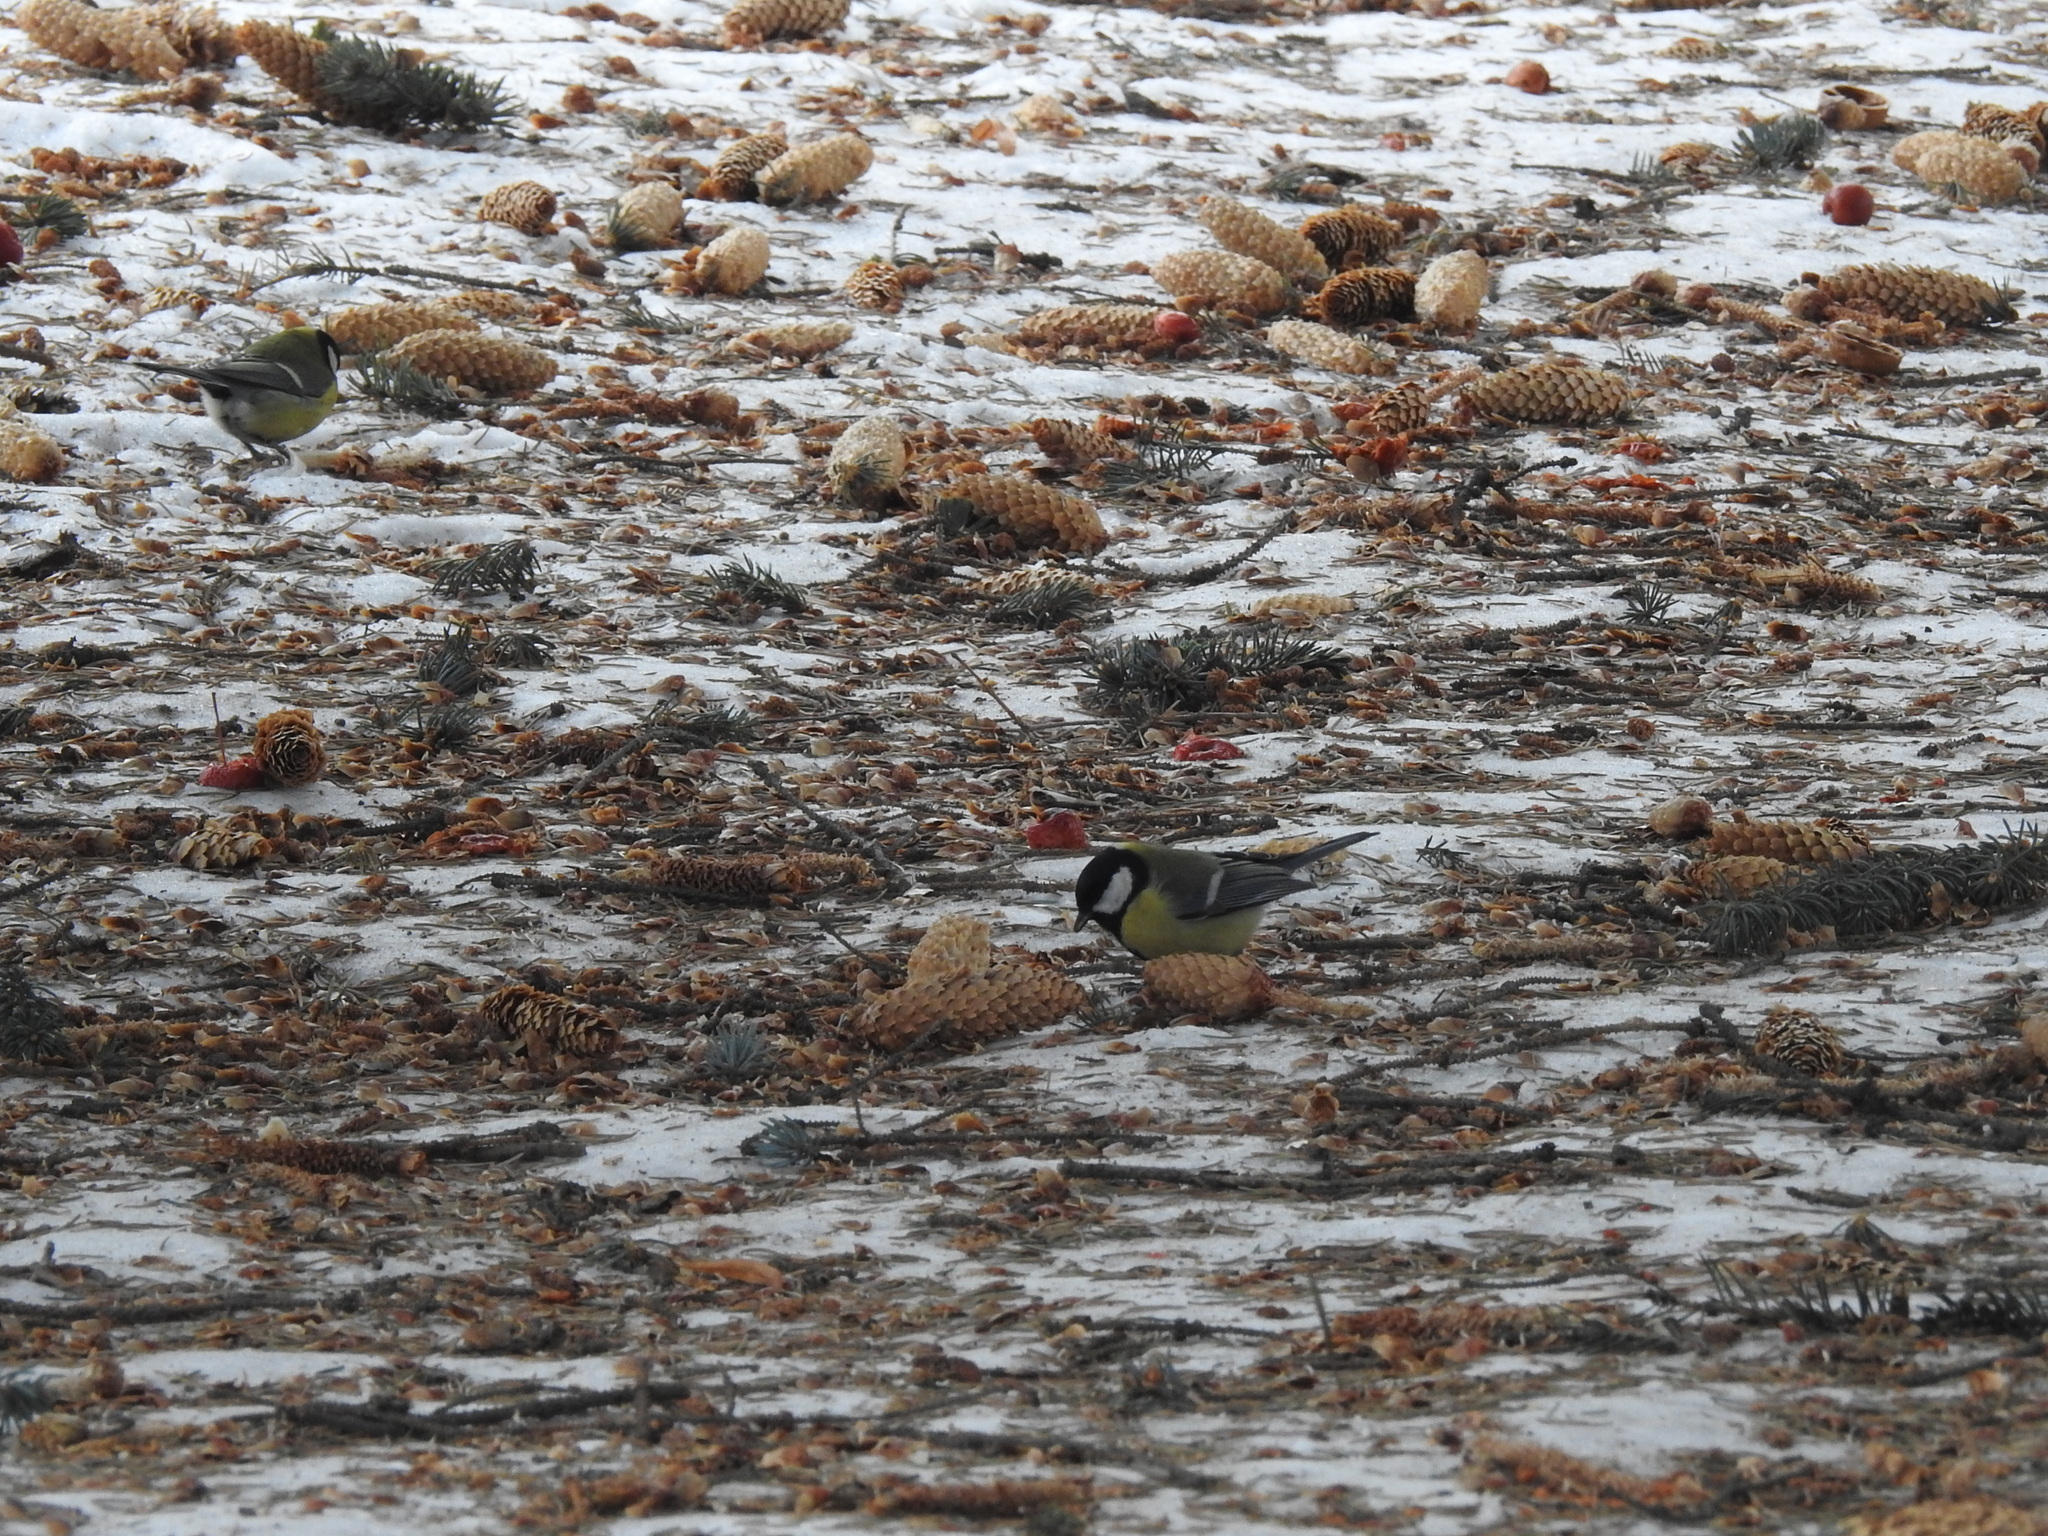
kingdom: Animalia
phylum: Chordata
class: Aves
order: Passeriformes
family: Paridae
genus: Parus
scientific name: Parus major
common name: Great tit
